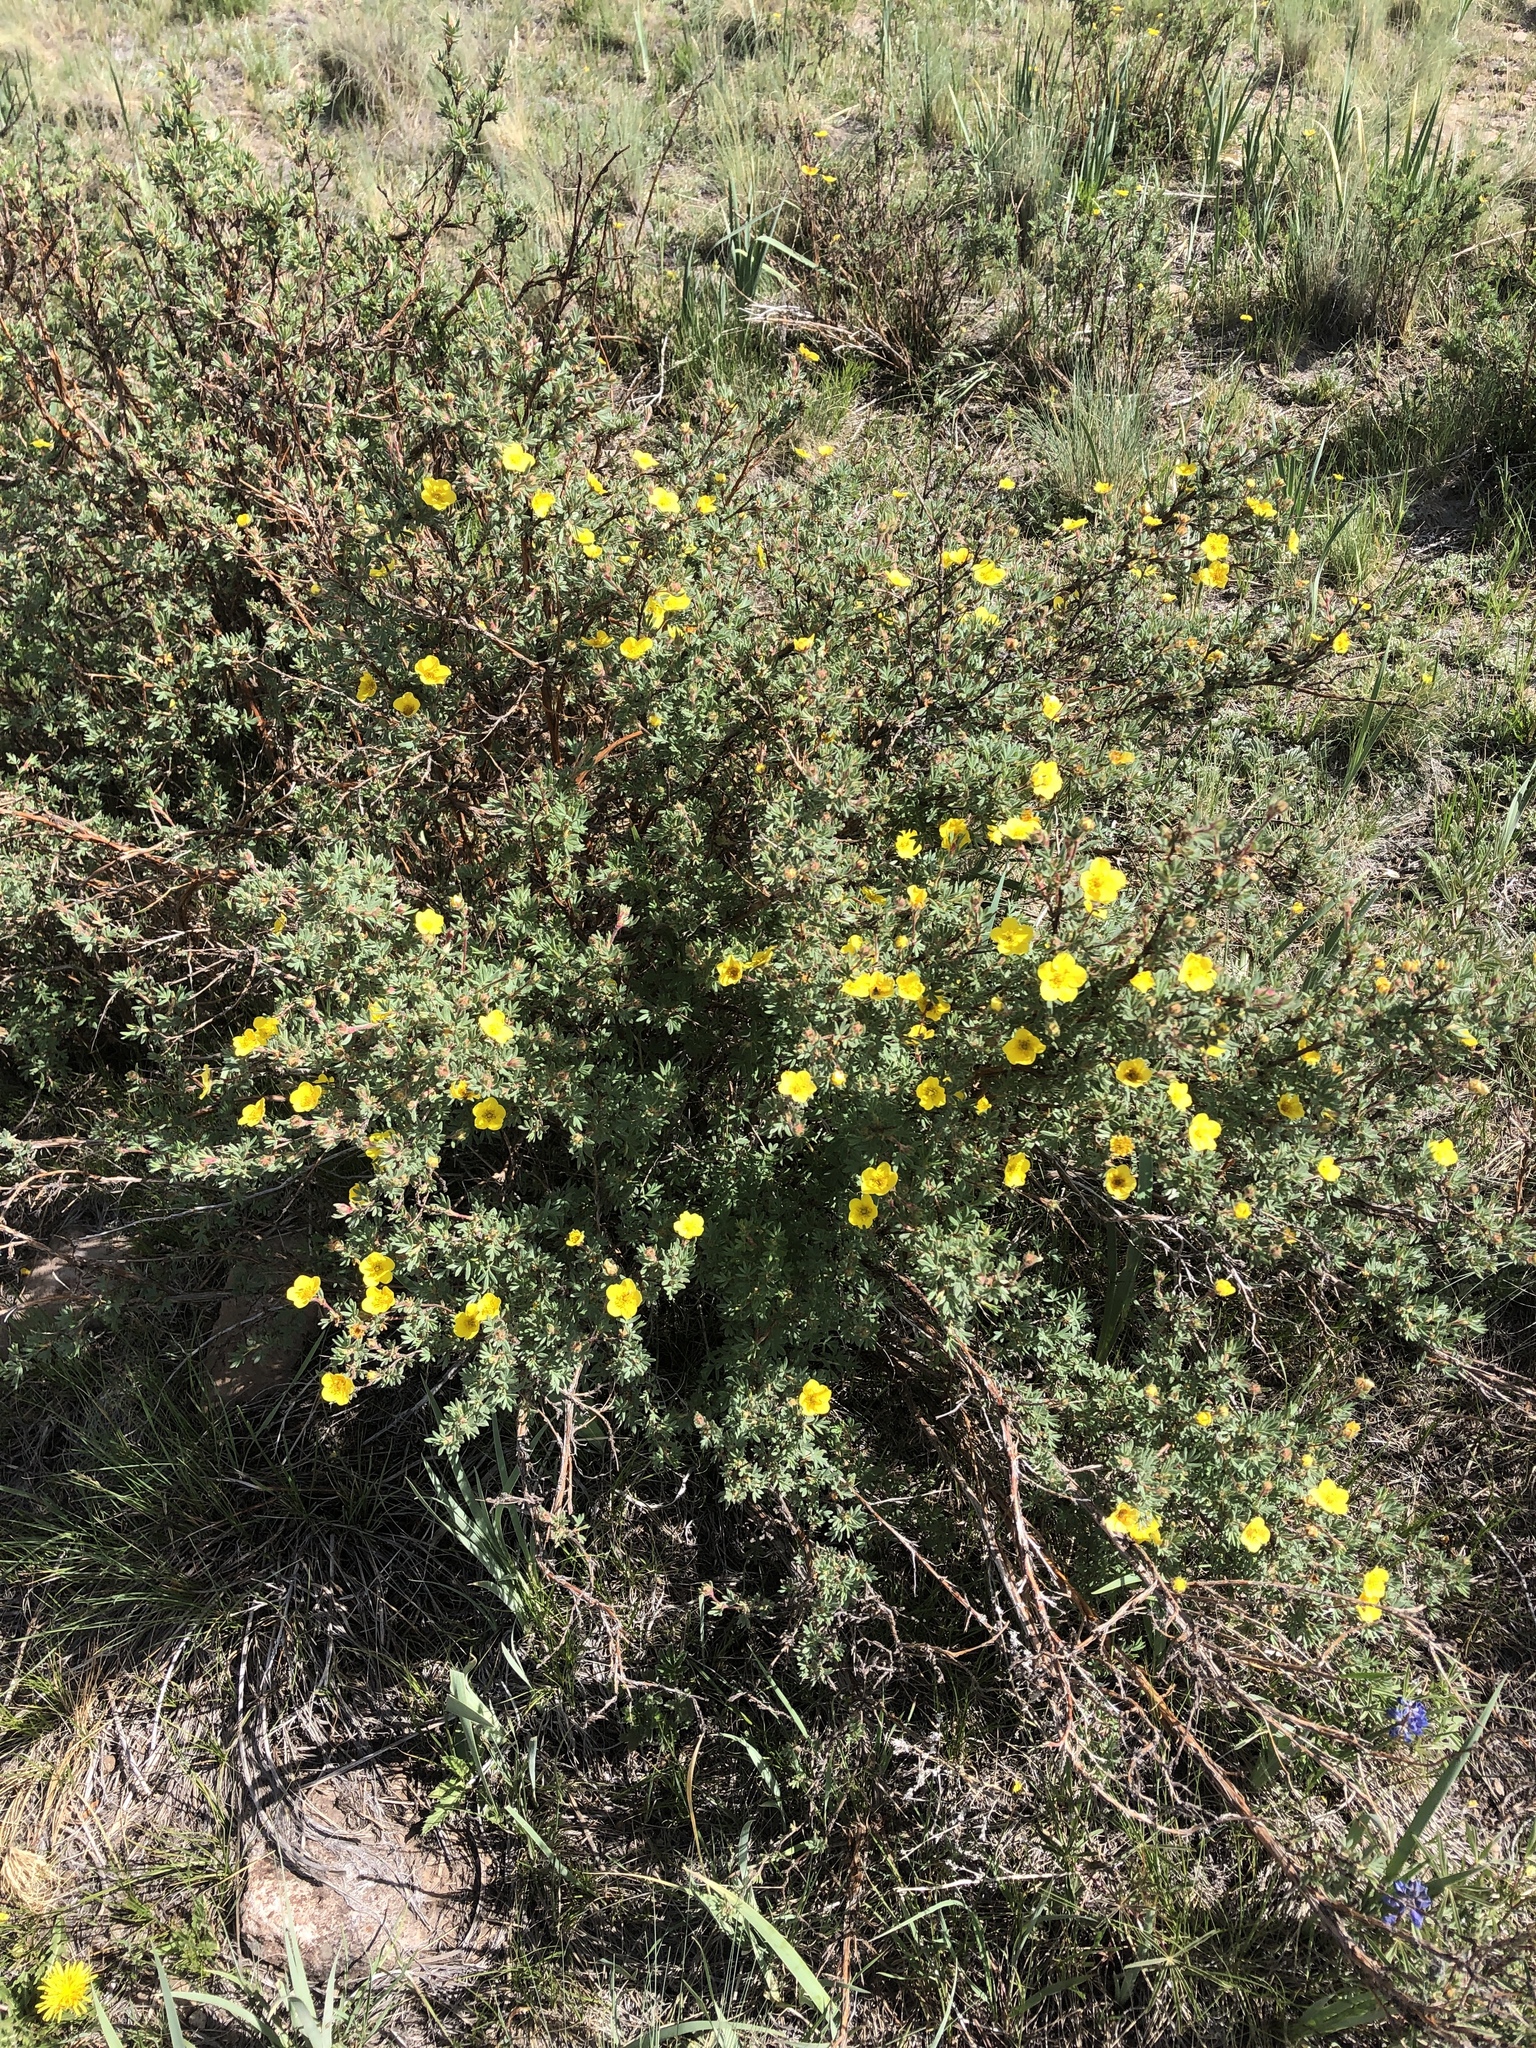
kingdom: Plantae
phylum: Tracheophyta
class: Magnoliopsida
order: Rosales
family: Rosaceae
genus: Dasiphora
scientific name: Dasiphora fruticosa
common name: Shrubby cinquefoil
